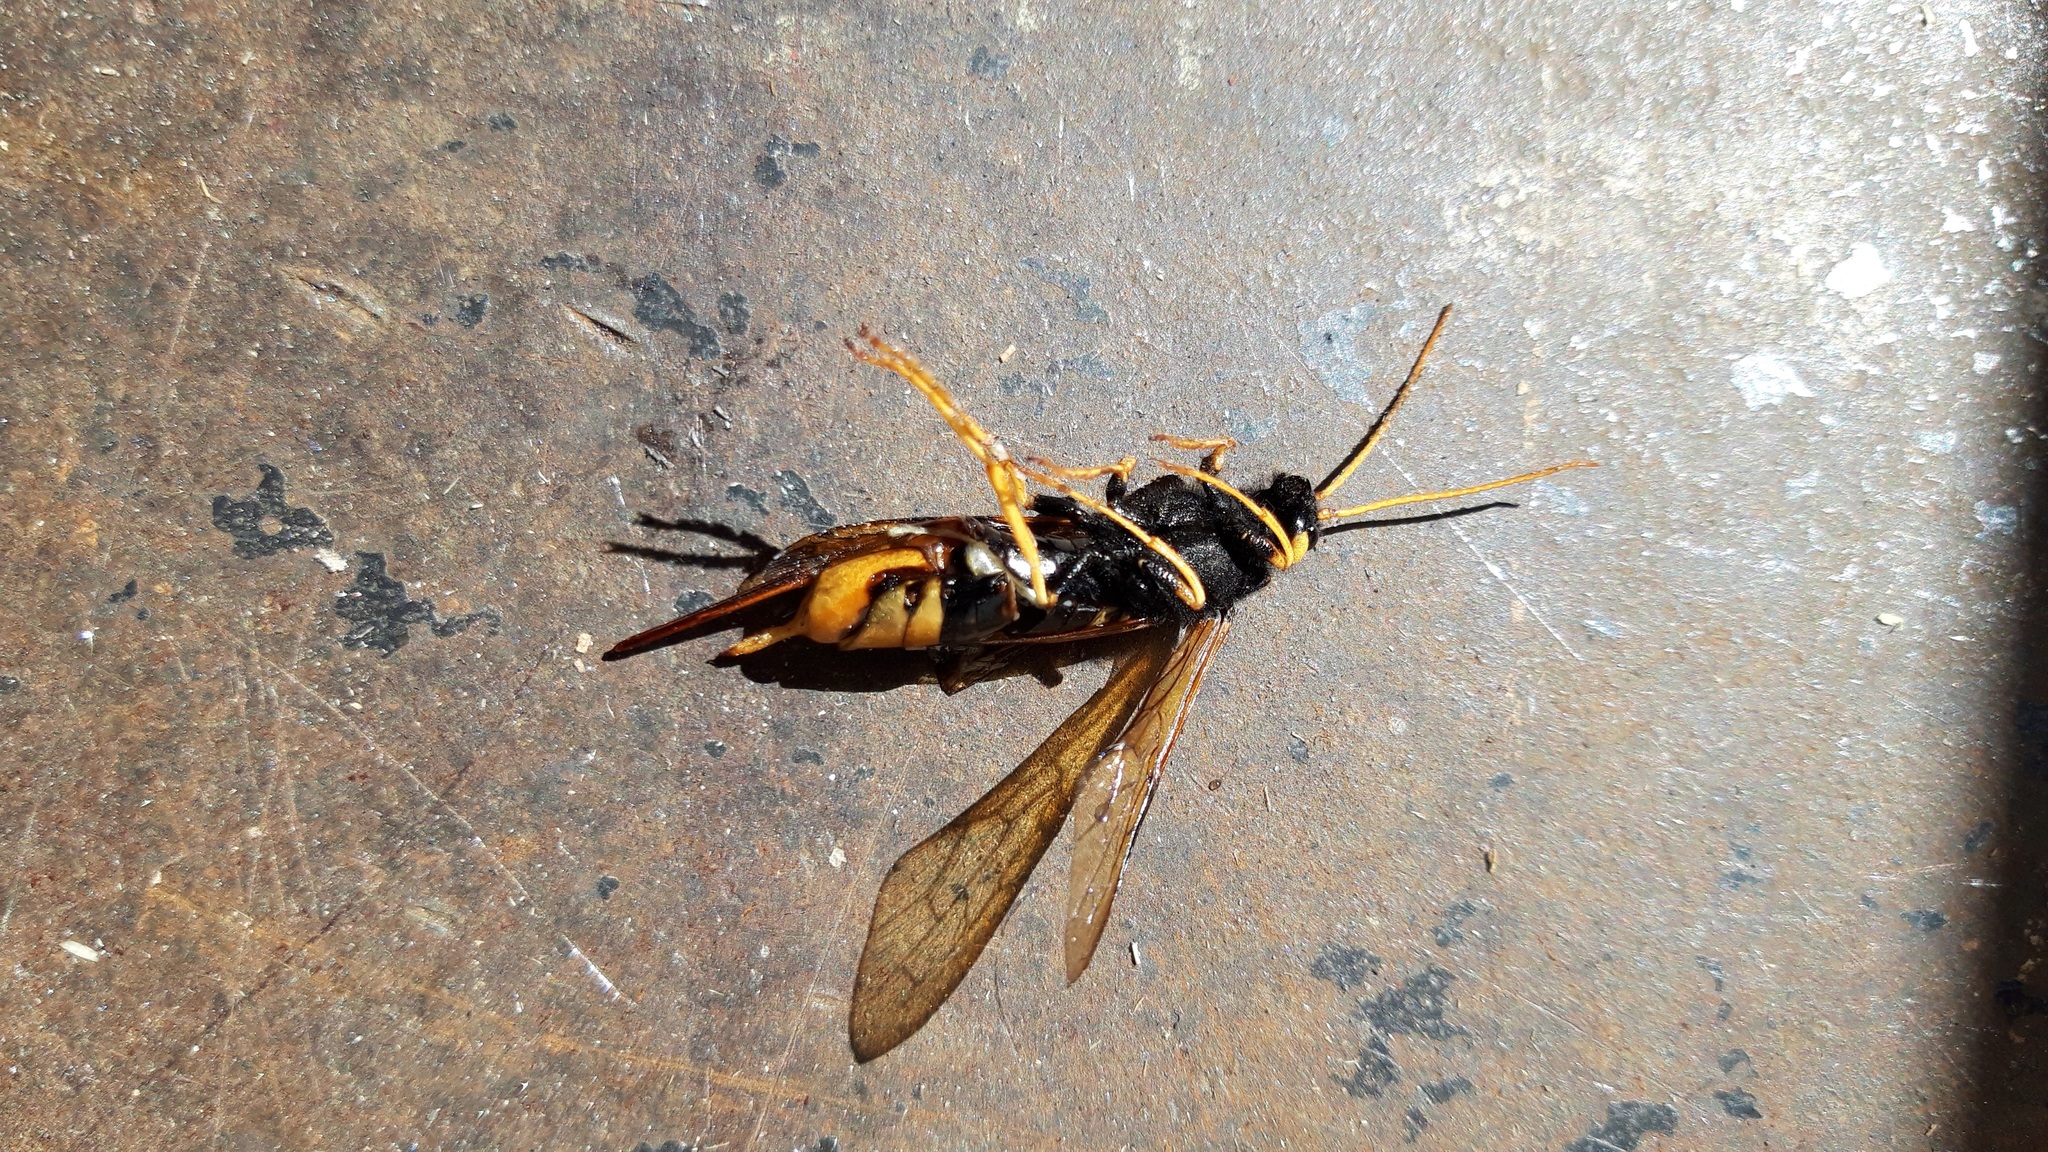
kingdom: Animalia
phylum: Arthropoda
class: Insecta
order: Hymenoptera
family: Siricidae
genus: Urocerus
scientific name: Urocerus gigas
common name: Giant woodwasp
